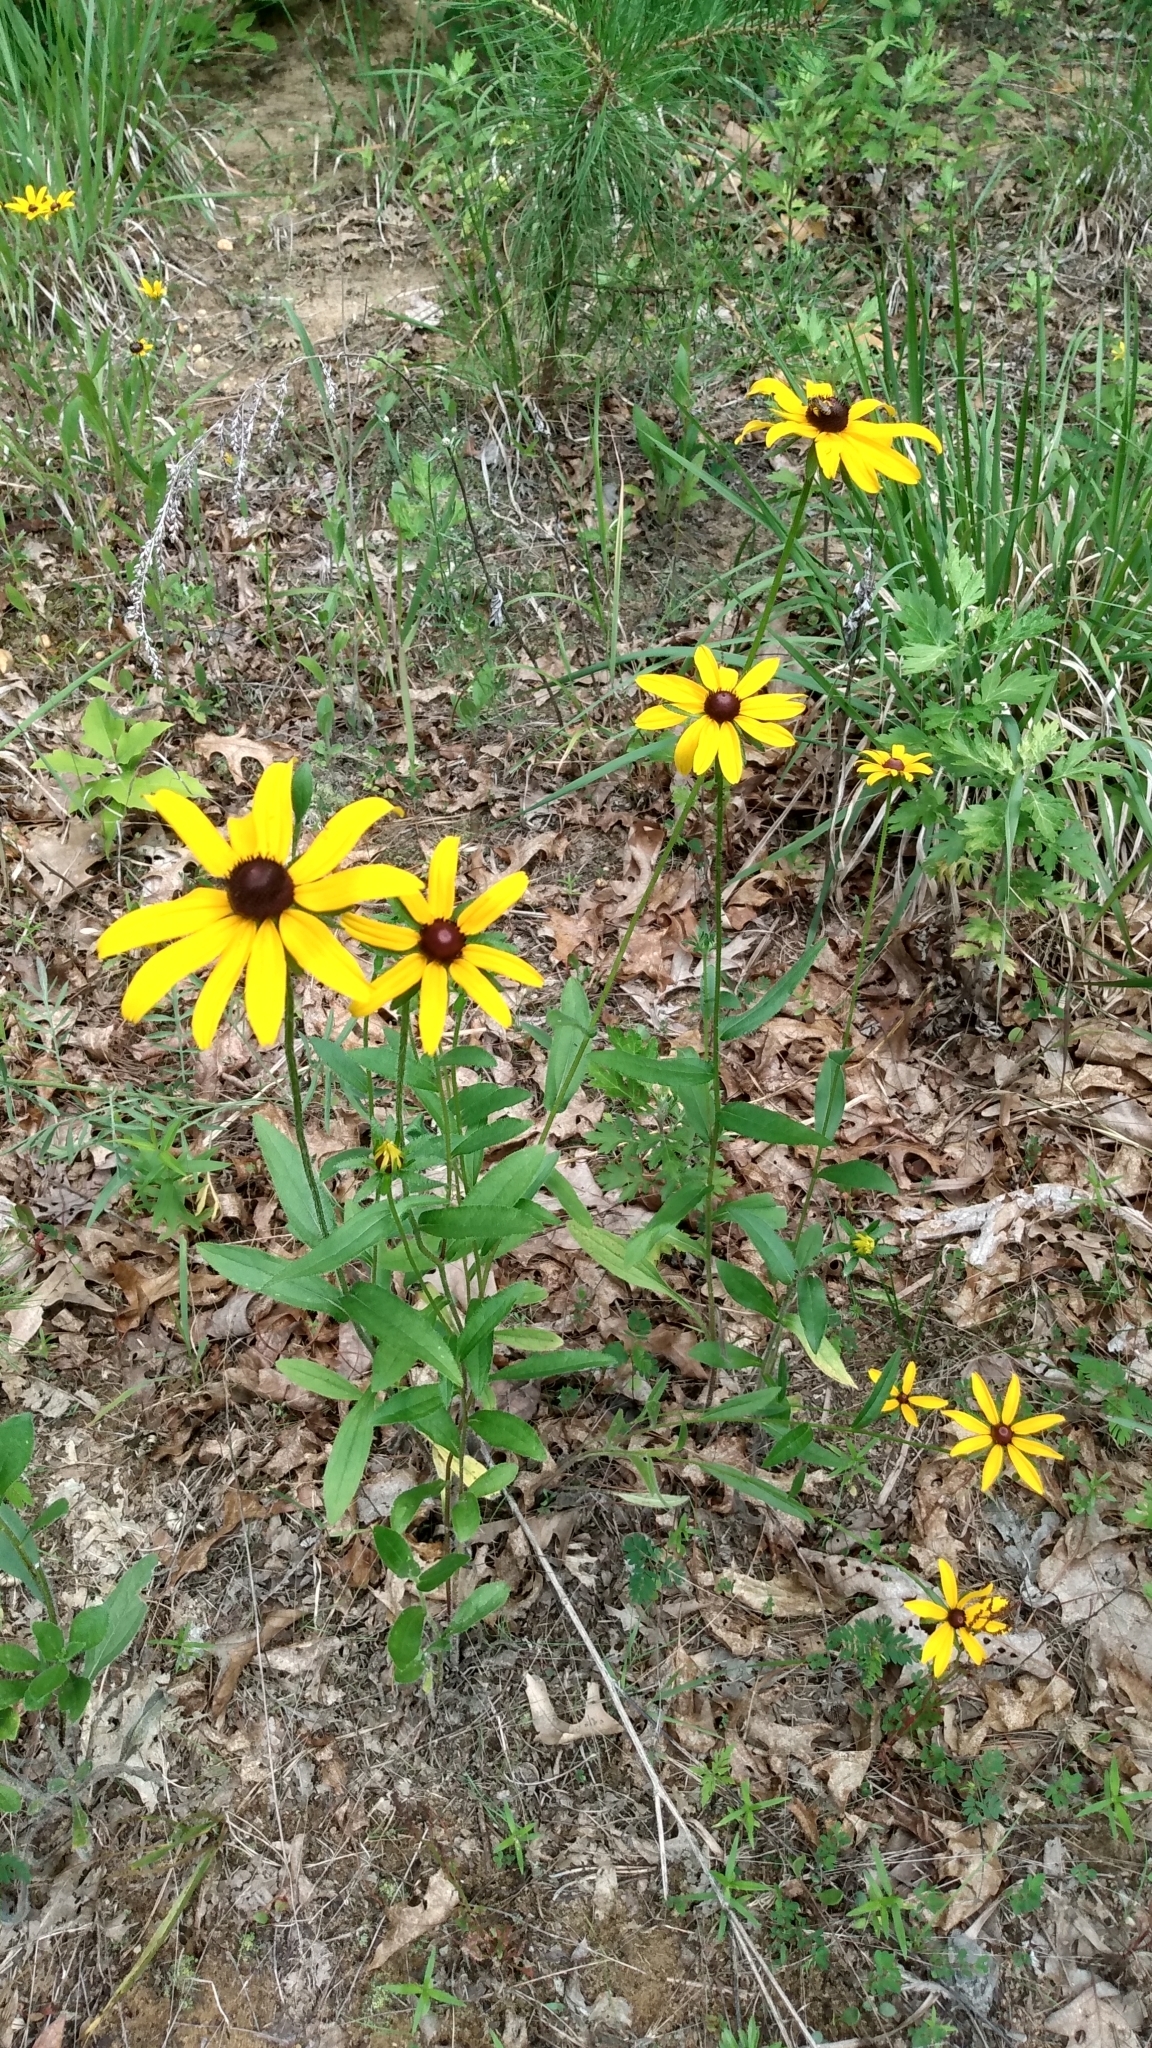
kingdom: Plantae
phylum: Tracheophyta
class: Magnoliopsida
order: Asterales
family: Asteraceae
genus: Rudbeckia
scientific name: Rudbeckia hirta
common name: Black-eyed-susan
